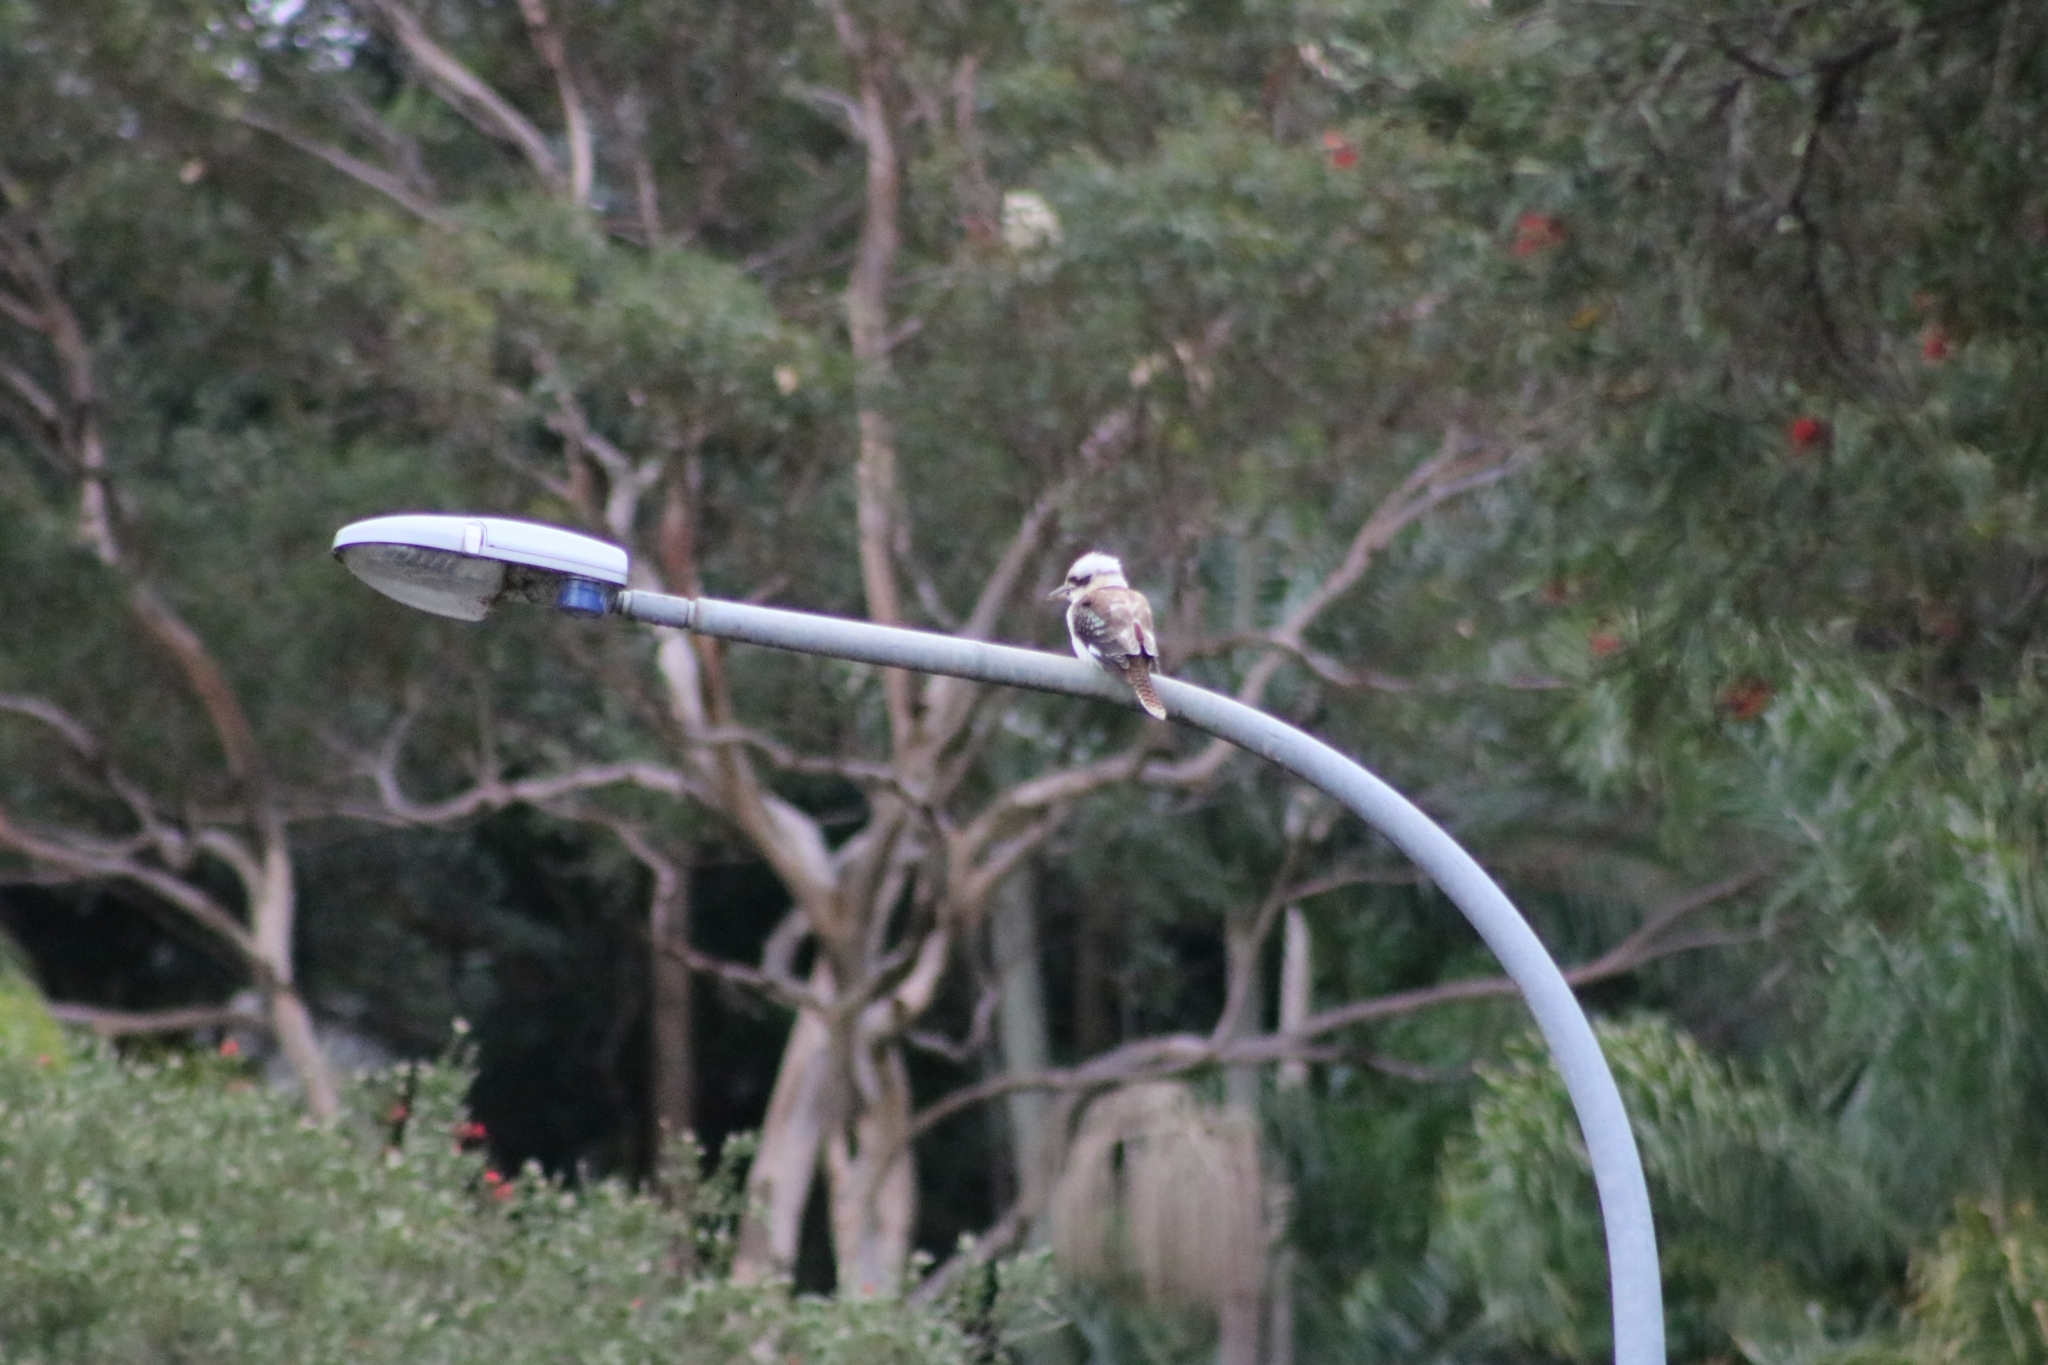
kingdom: Animalia
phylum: Chordata
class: Aves
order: Coraciiformes
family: Alcedinidae
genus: Dacelo
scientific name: Dacelo novaeguineae
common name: Laughing kookaburra
